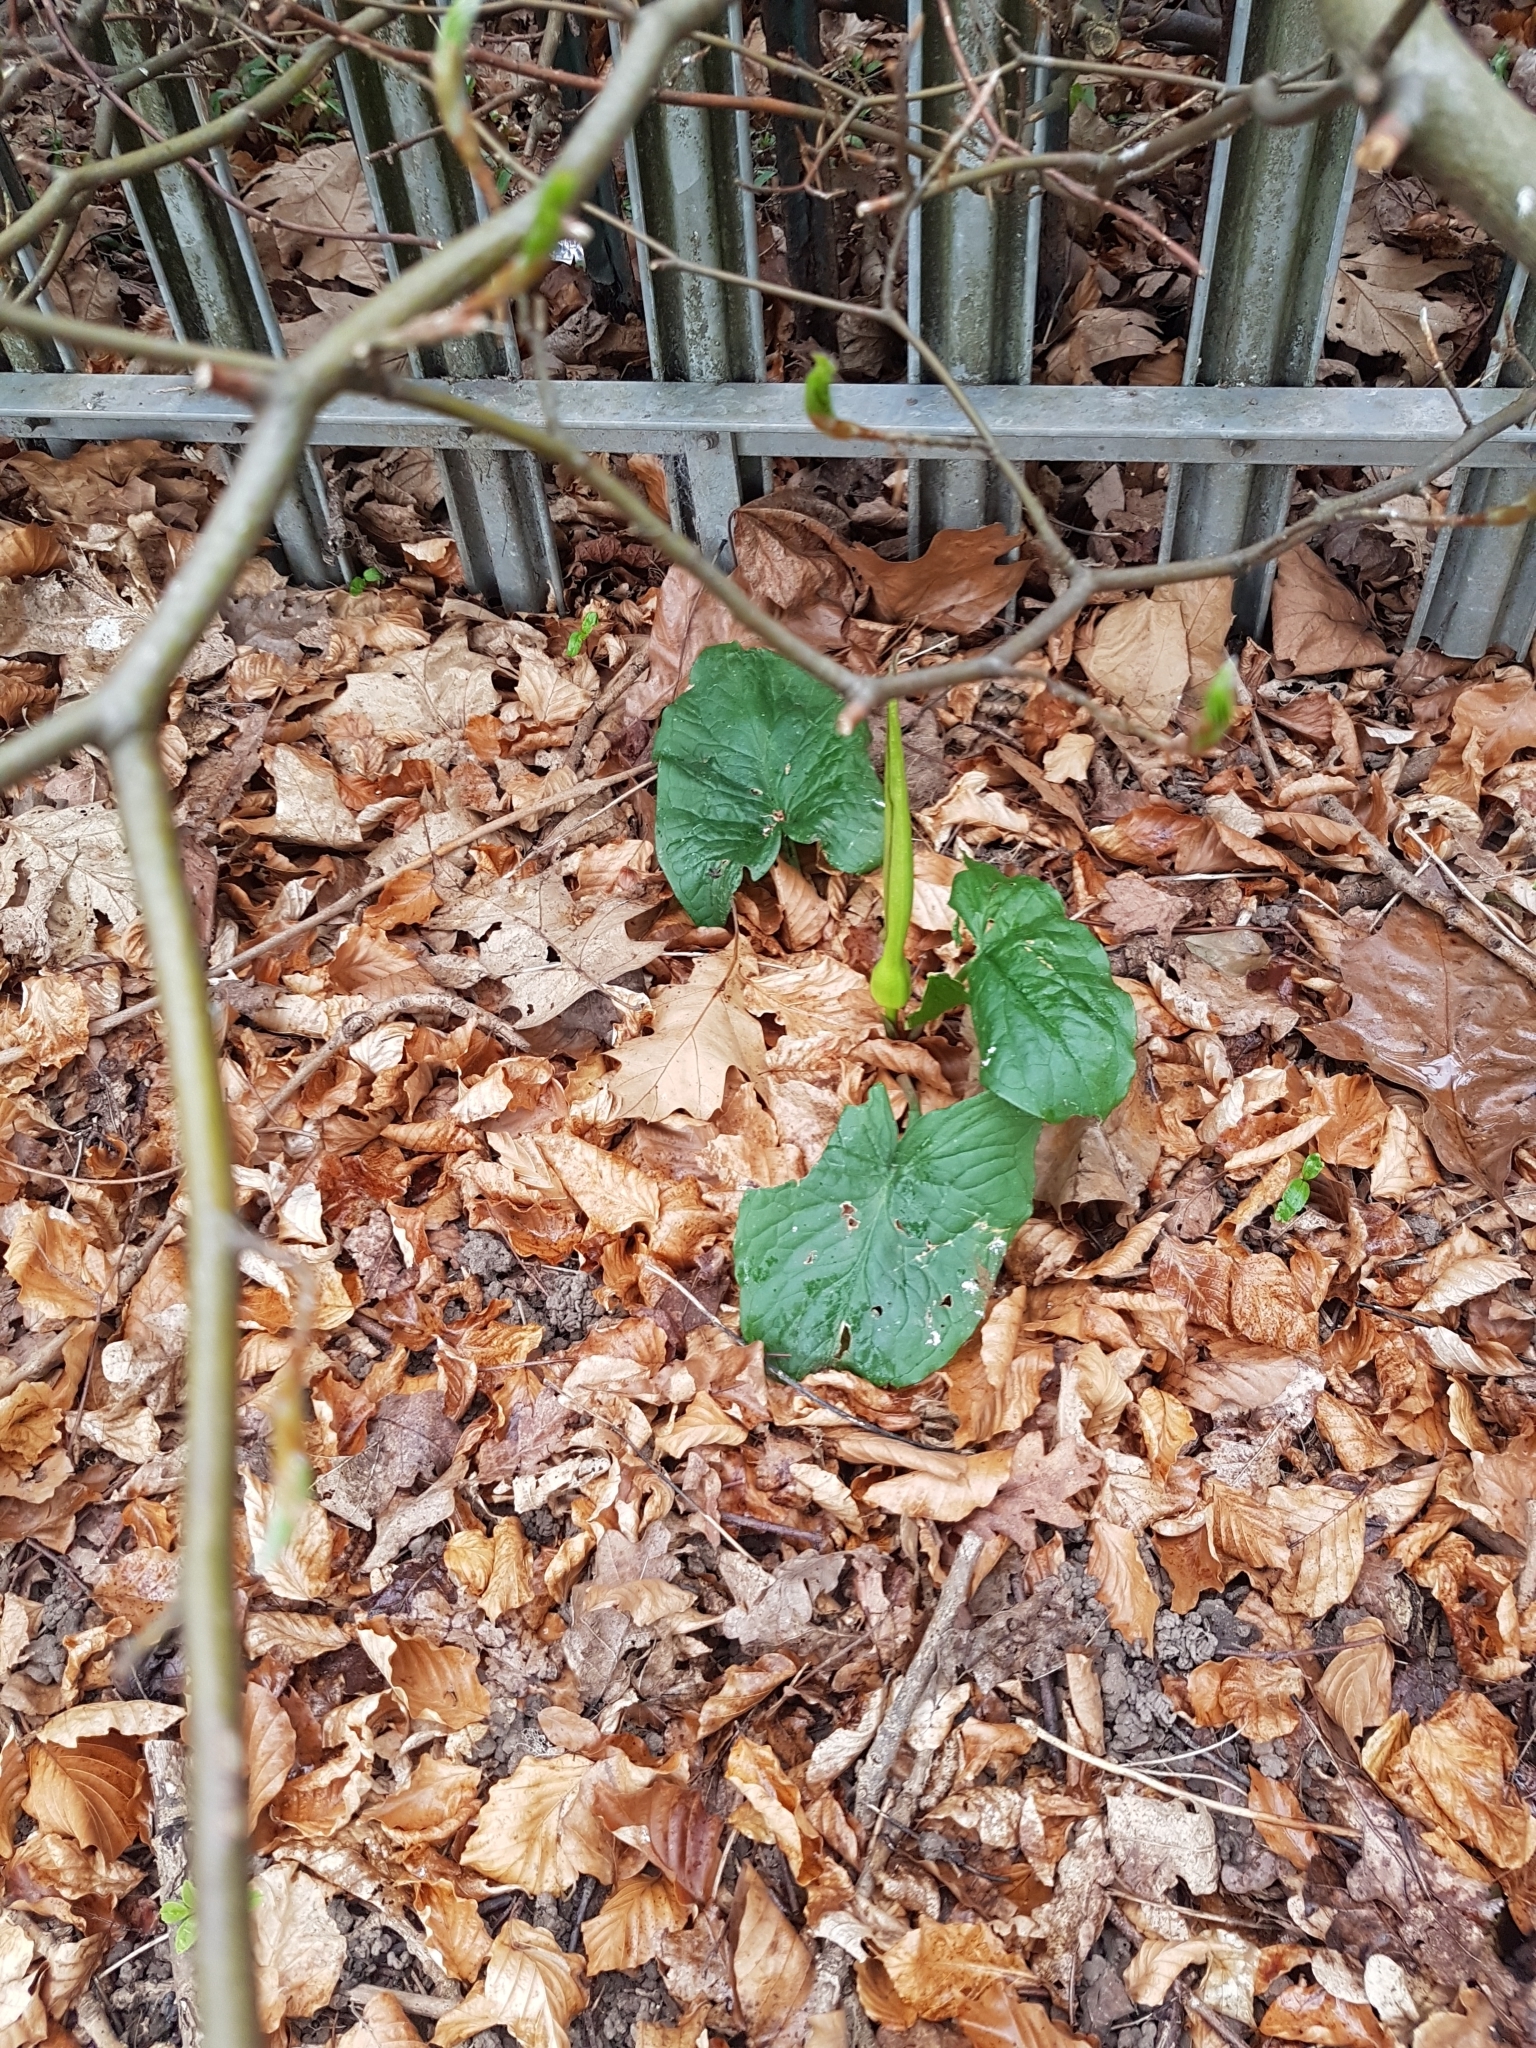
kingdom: Plantae
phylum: Tracheophyta
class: Liliopsida
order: Alismatales
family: Araceae
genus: Arum
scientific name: Arum maculatum
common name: Lords-and-ladies
